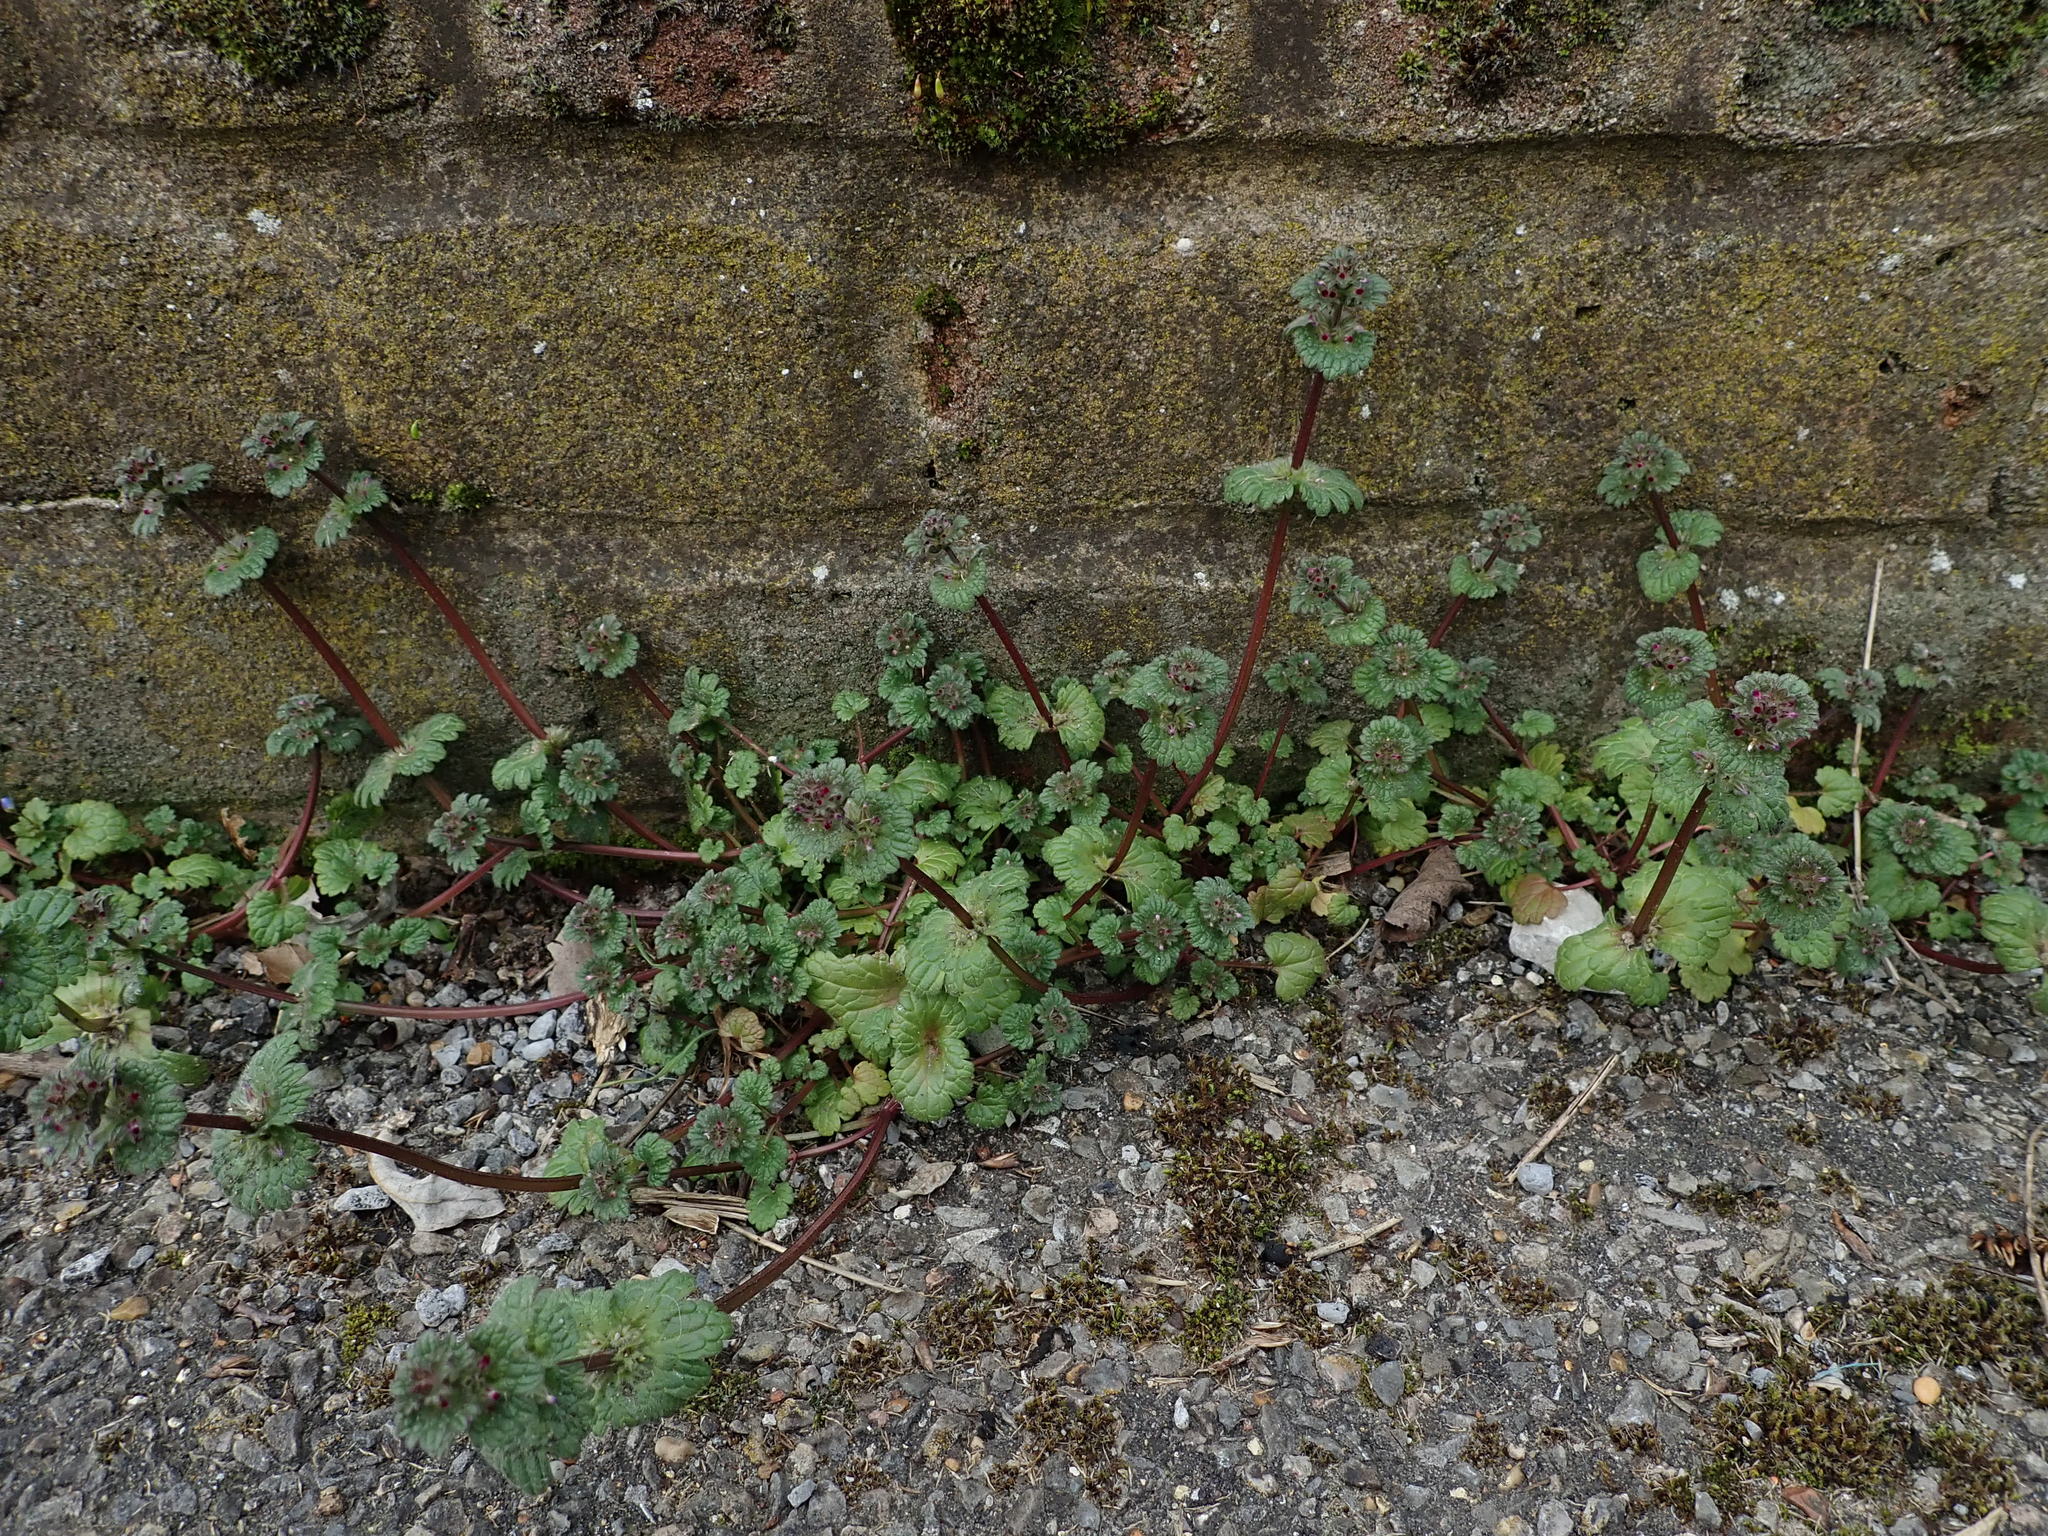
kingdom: Plantae
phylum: Tracheophyta
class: Magnoliopsida
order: Lamiales
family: Lamiaceae
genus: Lamium
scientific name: Lamium amplexicaule
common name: Henbit dead-nettle
